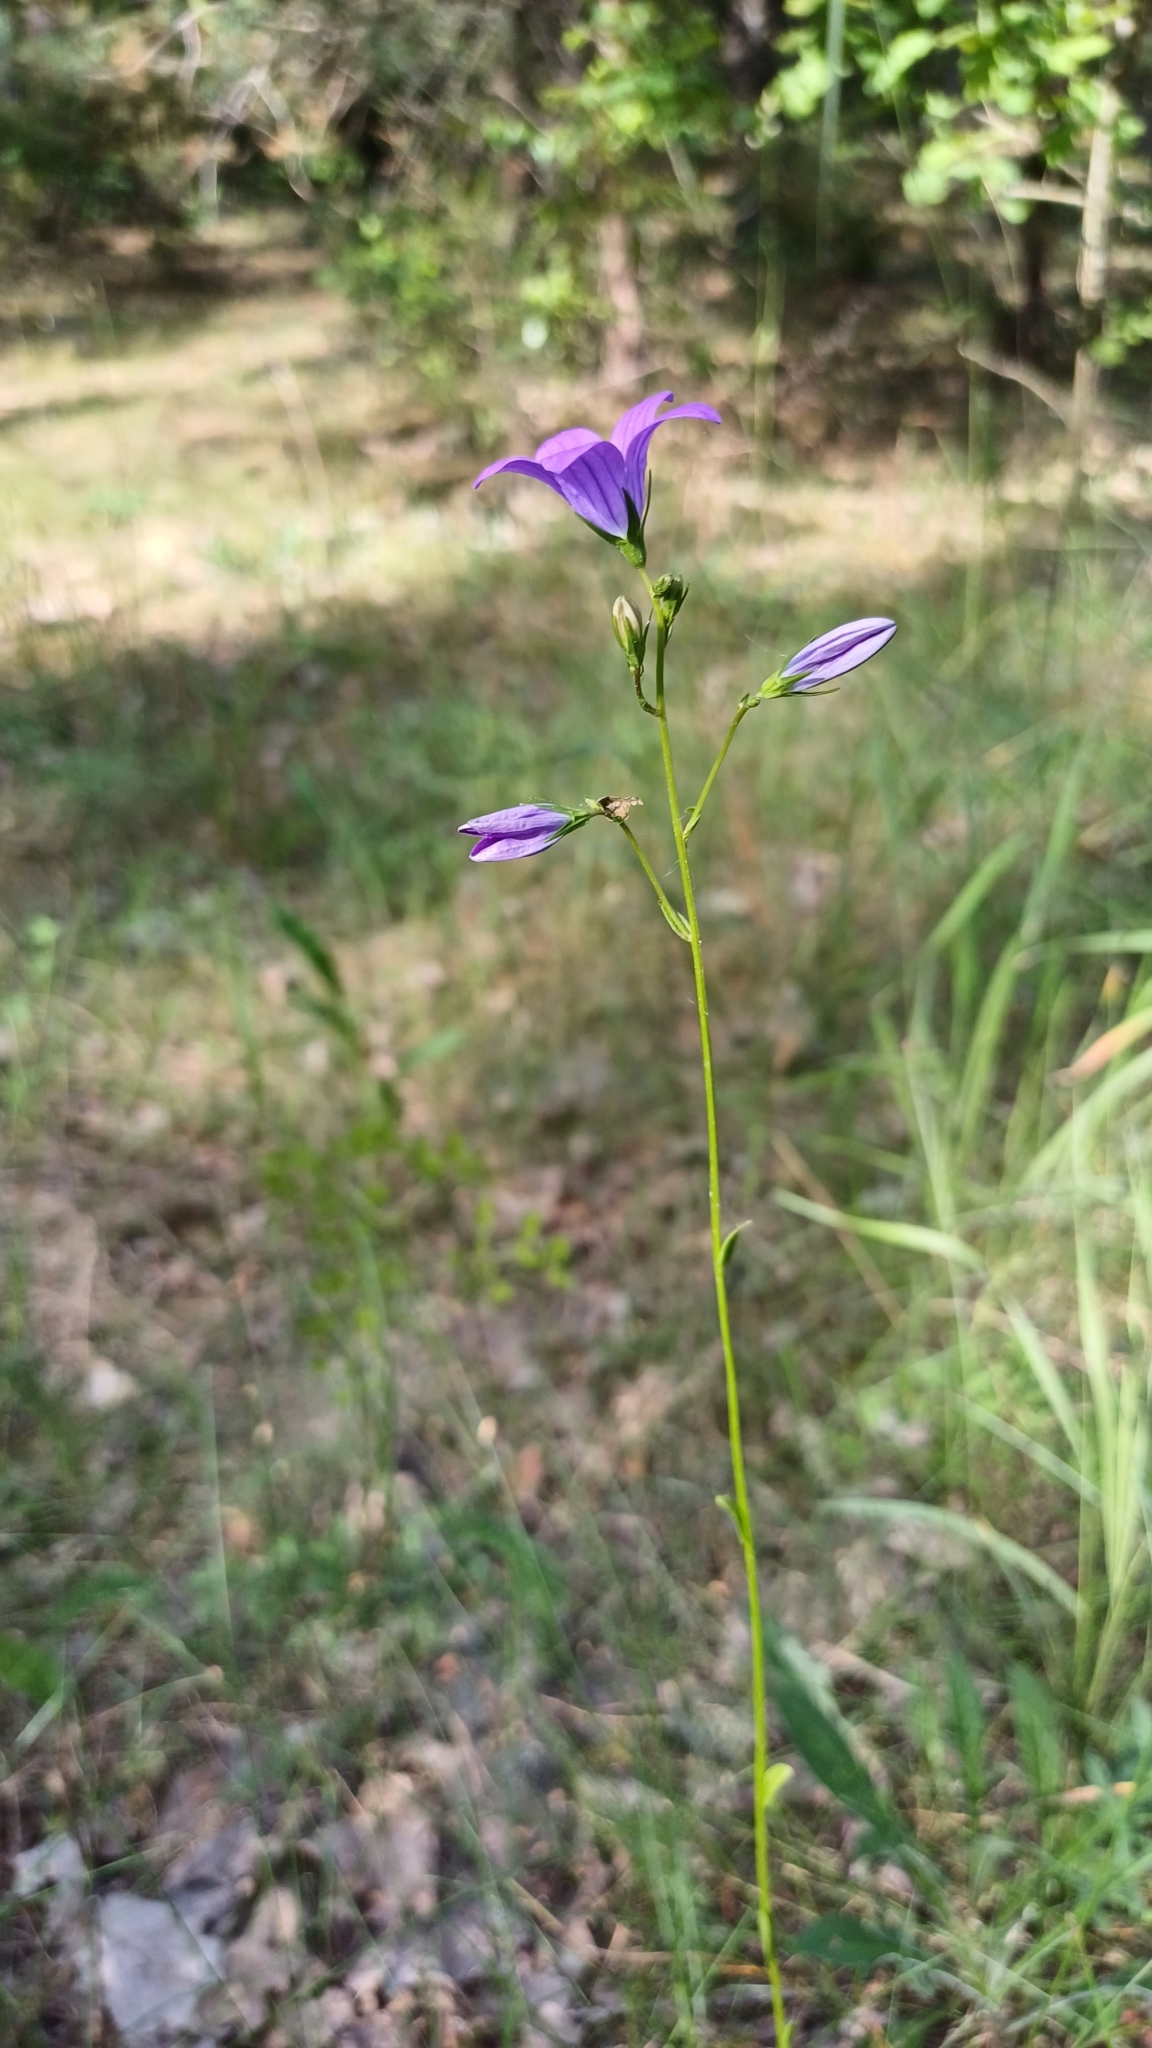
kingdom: Plantae
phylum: Tracheophyta
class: Magnoliopsida
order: Asterales
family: Campanulaceae
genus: Campanula
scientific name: Campanula patula
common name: Spreading bellflower
